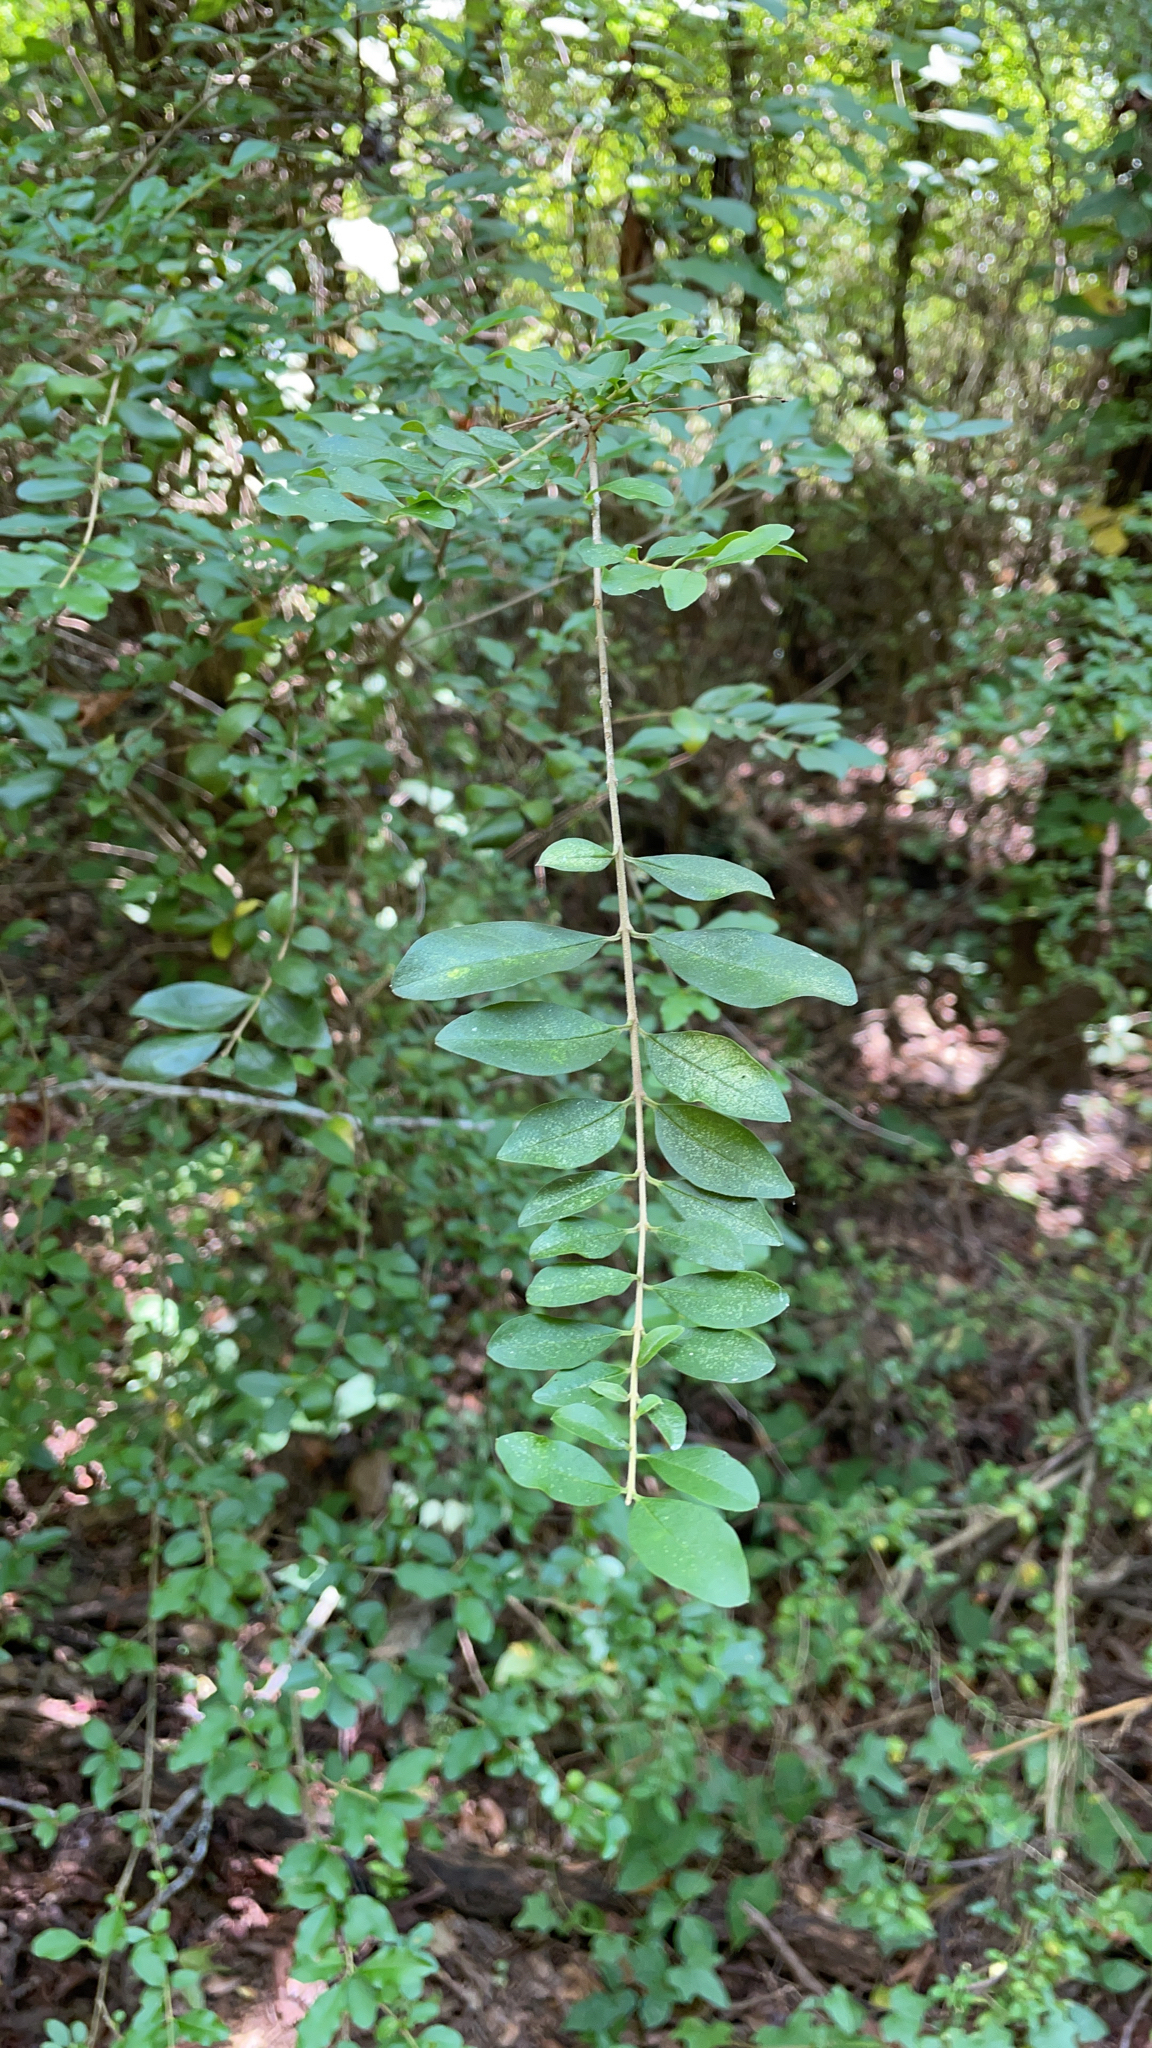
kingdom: Plantae
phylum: Tracheophyta
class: Magnoliopsida
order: Lamiales
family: Oleaceae
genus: Ligustrum
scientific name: Ligustrum sinense
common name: Chinese privet
